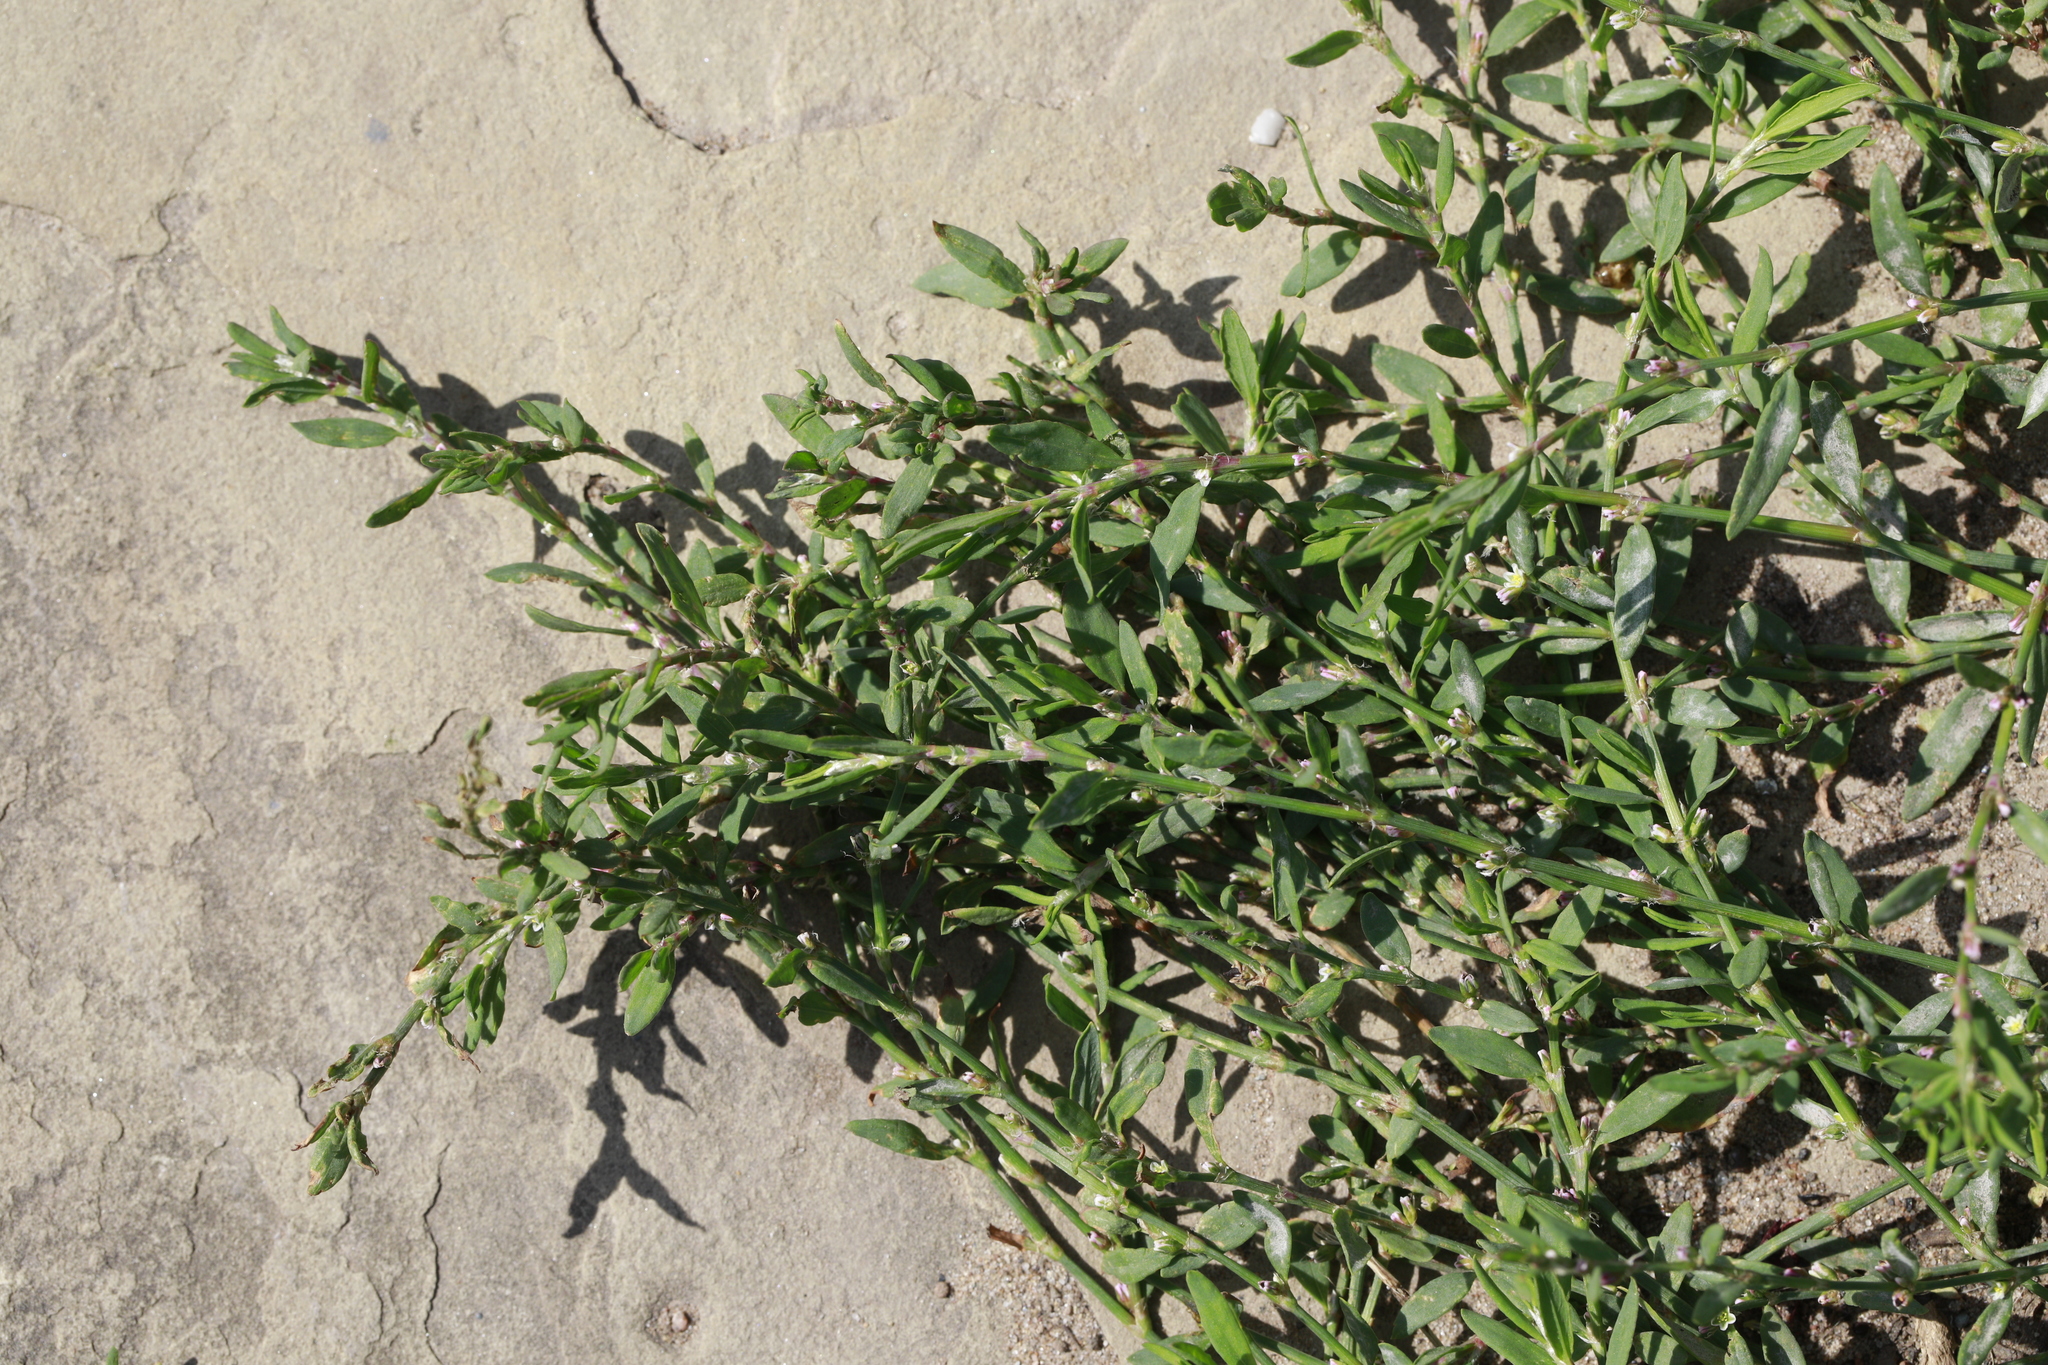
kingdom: Plantae
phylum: Tracheophyta
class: Magnoliopsida
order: Caryophyllales
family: Polygonaceae
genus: Polygonum
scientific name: Polygonum aviculare
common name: Prostrate knotweed
